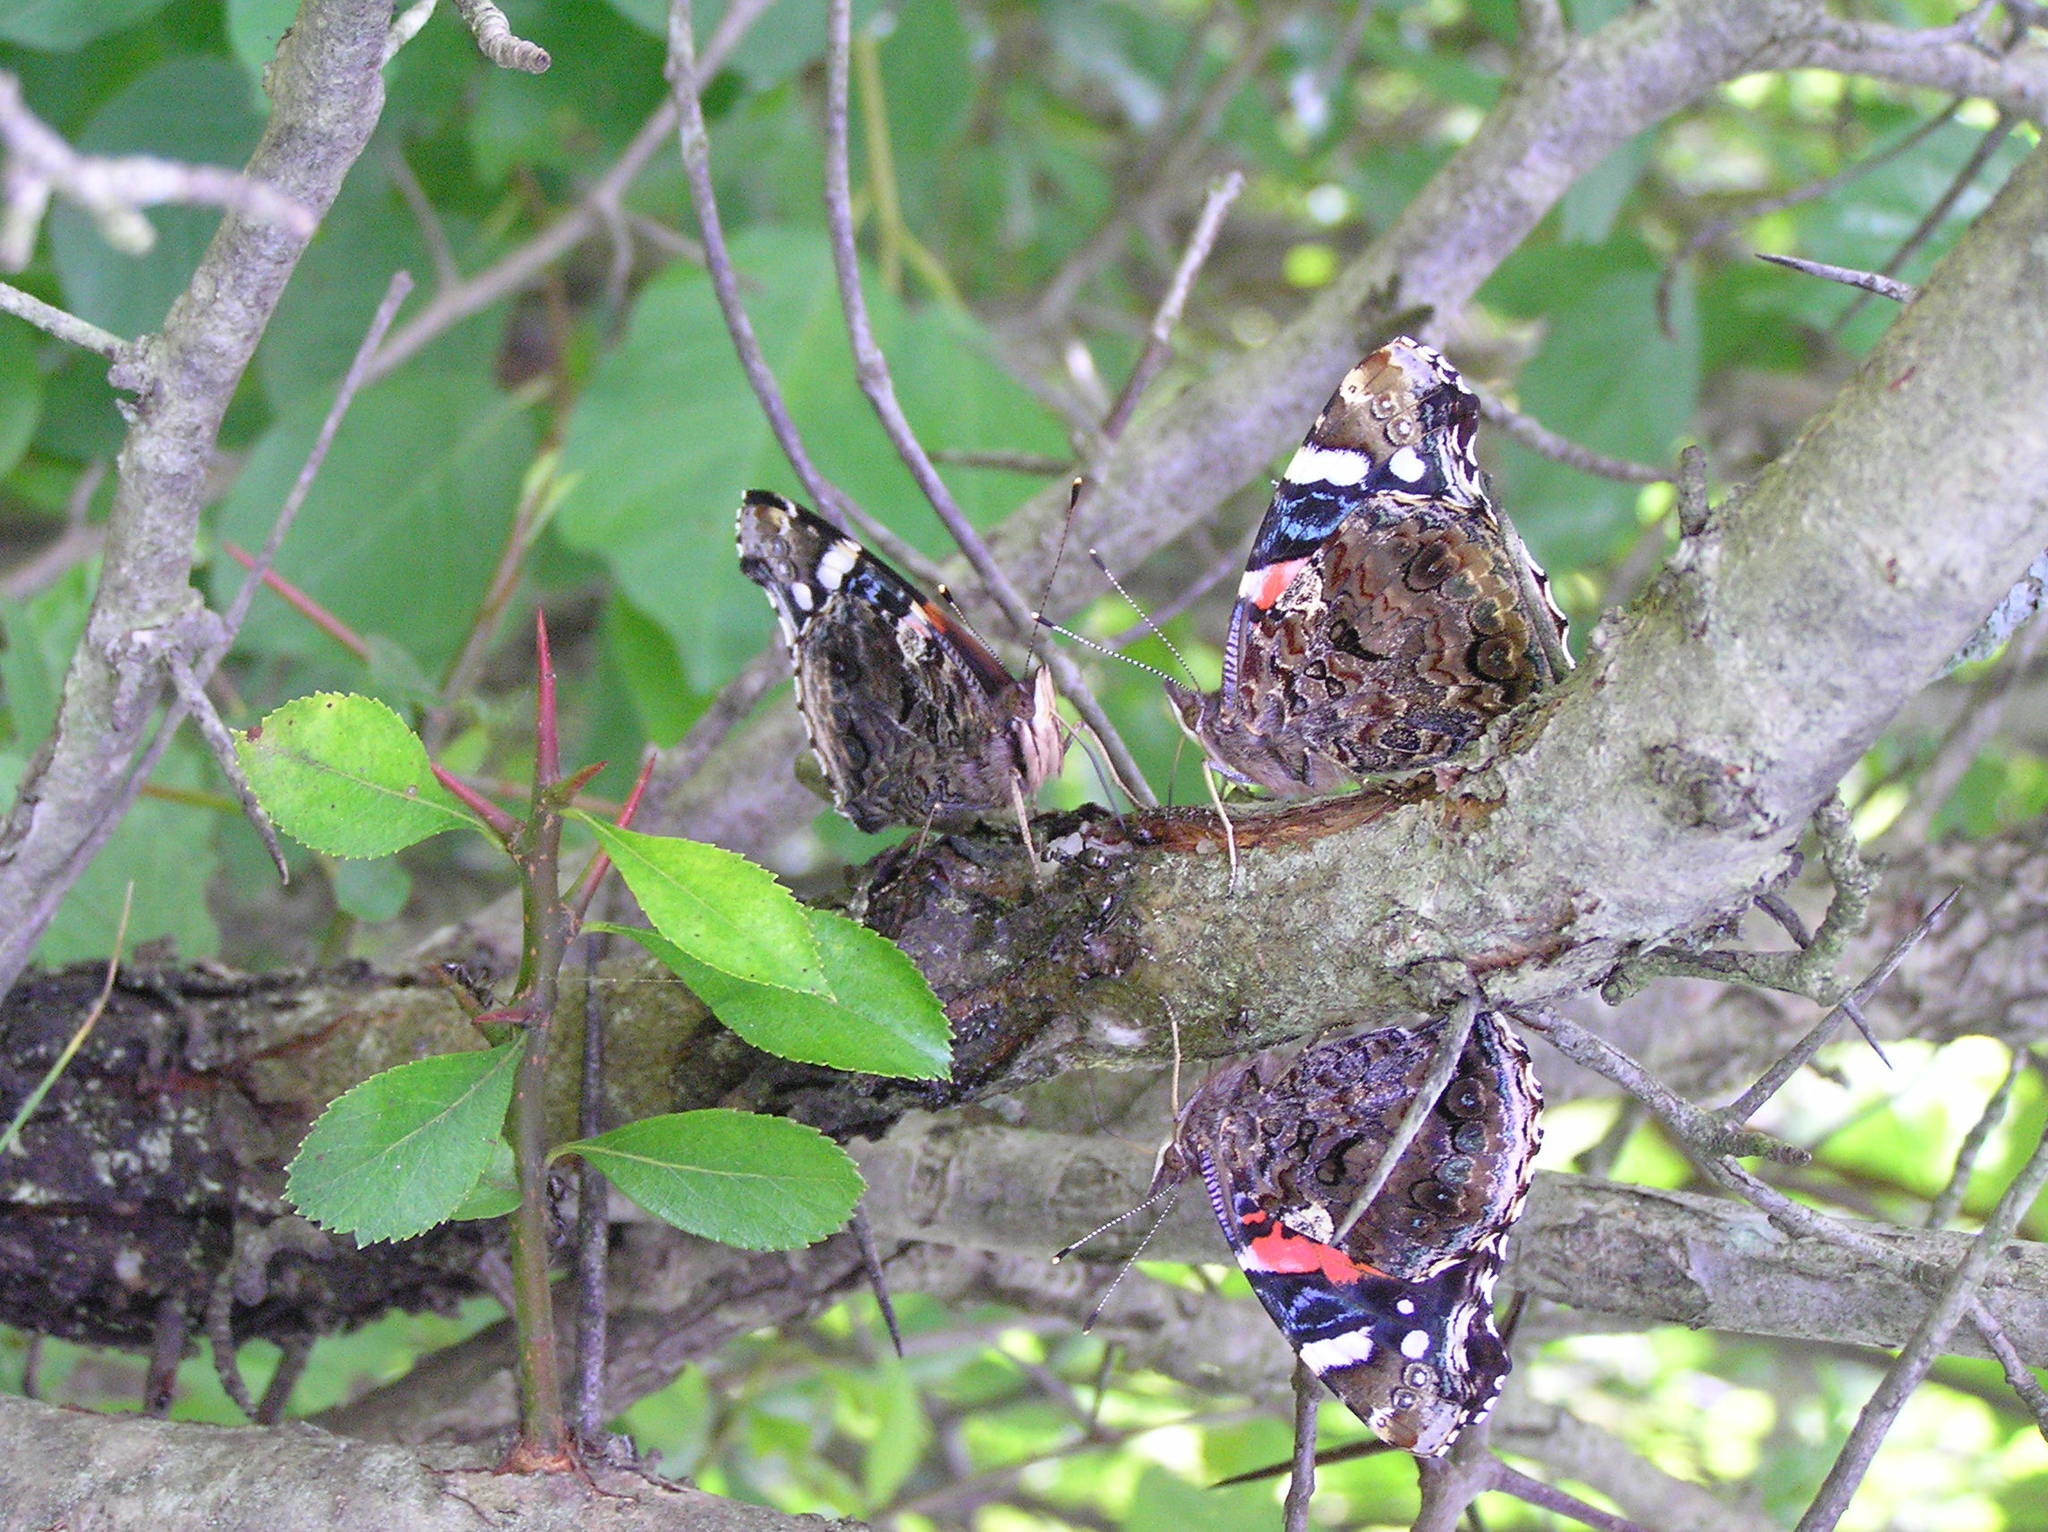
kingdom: Animalia
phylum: Arthropoda
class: Insecta
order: Lepidoptera
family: Nymphalidae
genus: Vanessa
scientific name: Vanessa atalanta
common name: Red admiral
